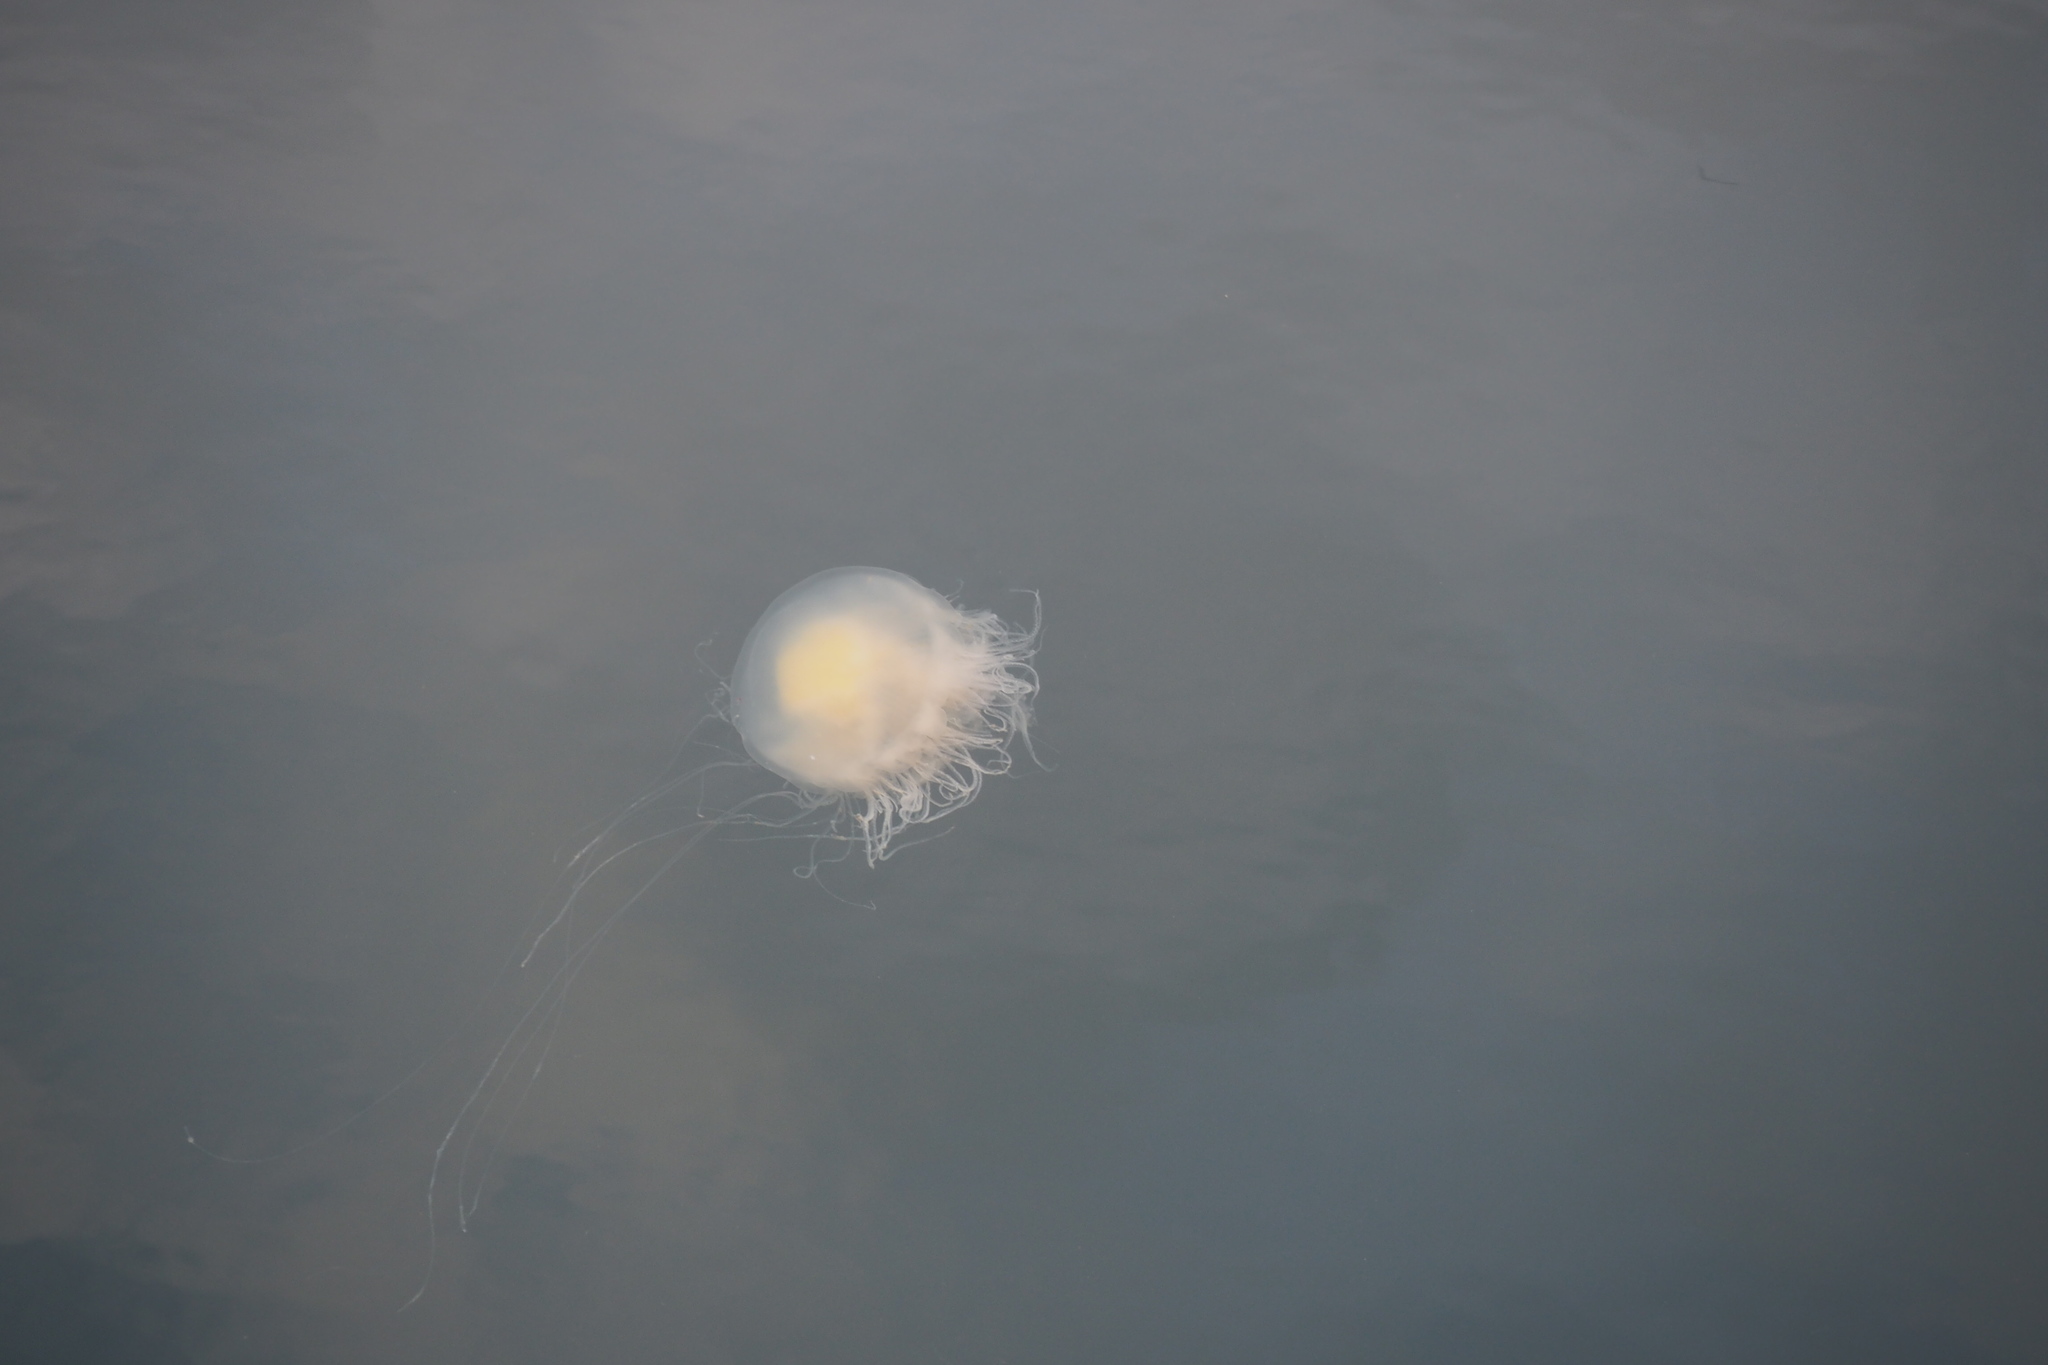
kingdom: Animalia
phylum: Cnidaria
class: Scyphozoa
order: Semaeostomeae
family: Phacellophoridae
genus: Phacellophora
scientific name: Phacellophora camtschatica
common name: Fried-egg jellyfish
